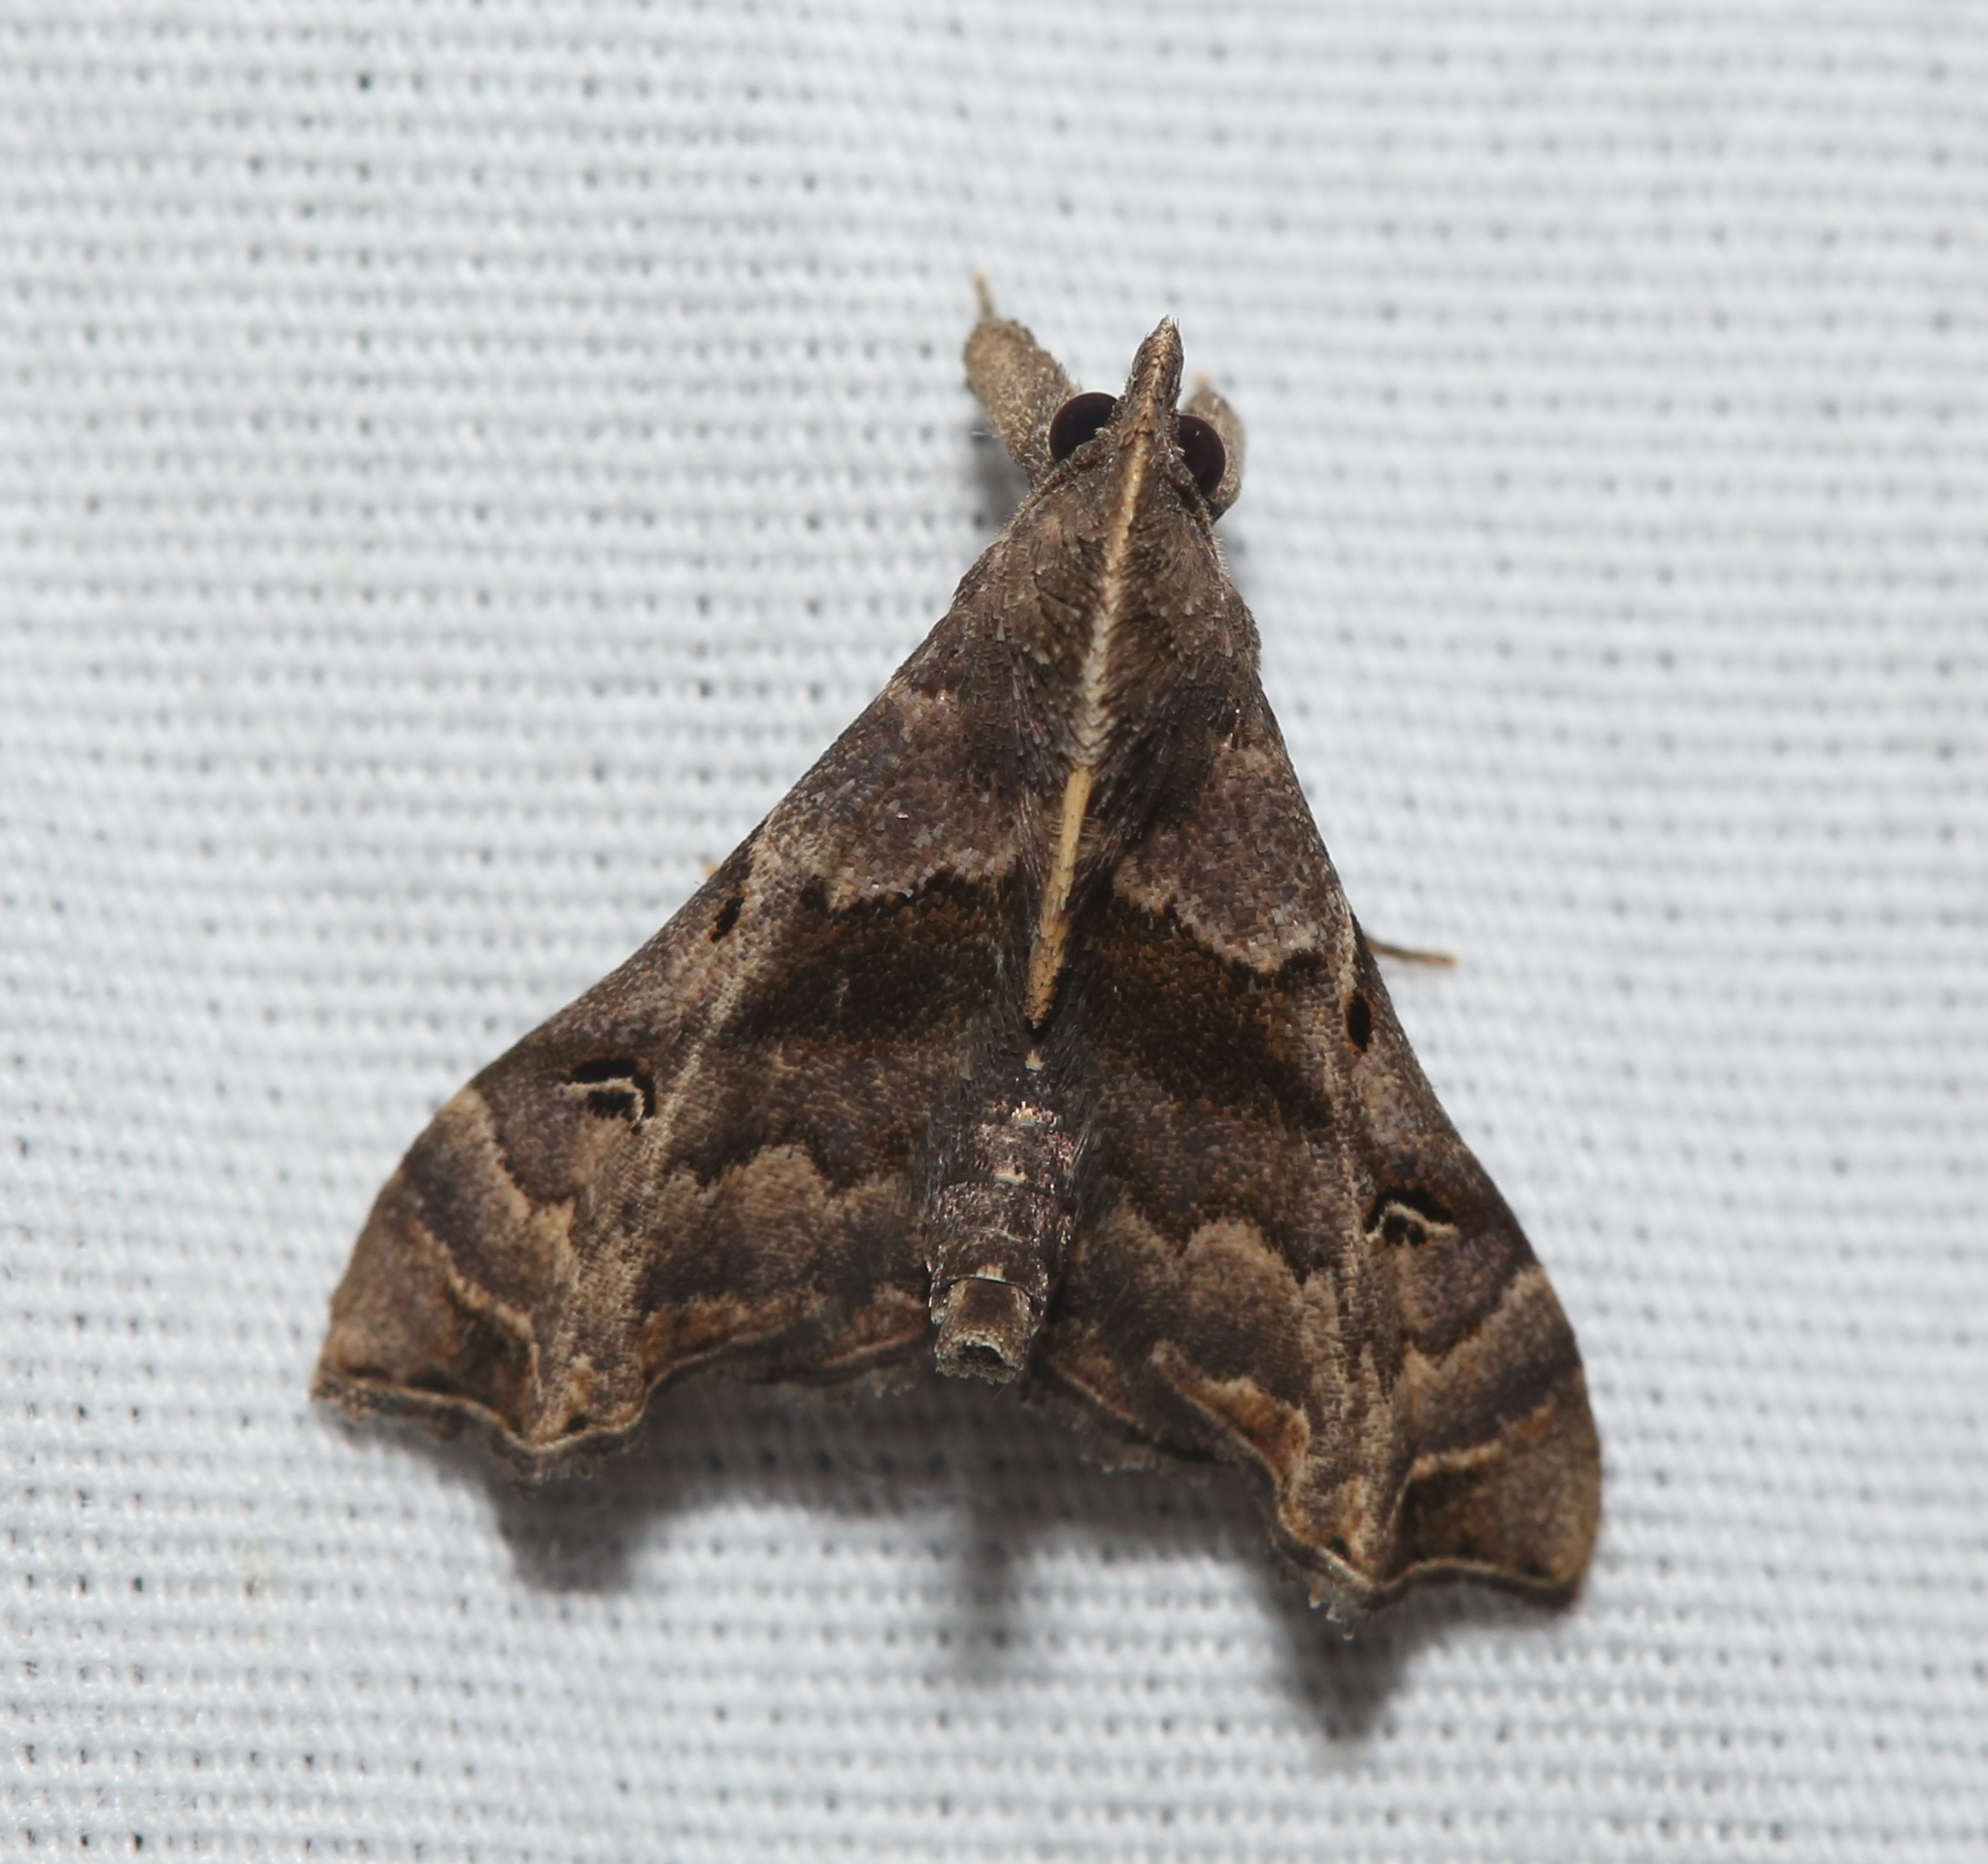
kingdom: Animalia
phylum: Arthropoda
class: Insecta
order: Lepidoptera
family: Erebidae
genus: Palthis
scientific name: Palthis asopialis
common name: Faint-spotted palthis moth
